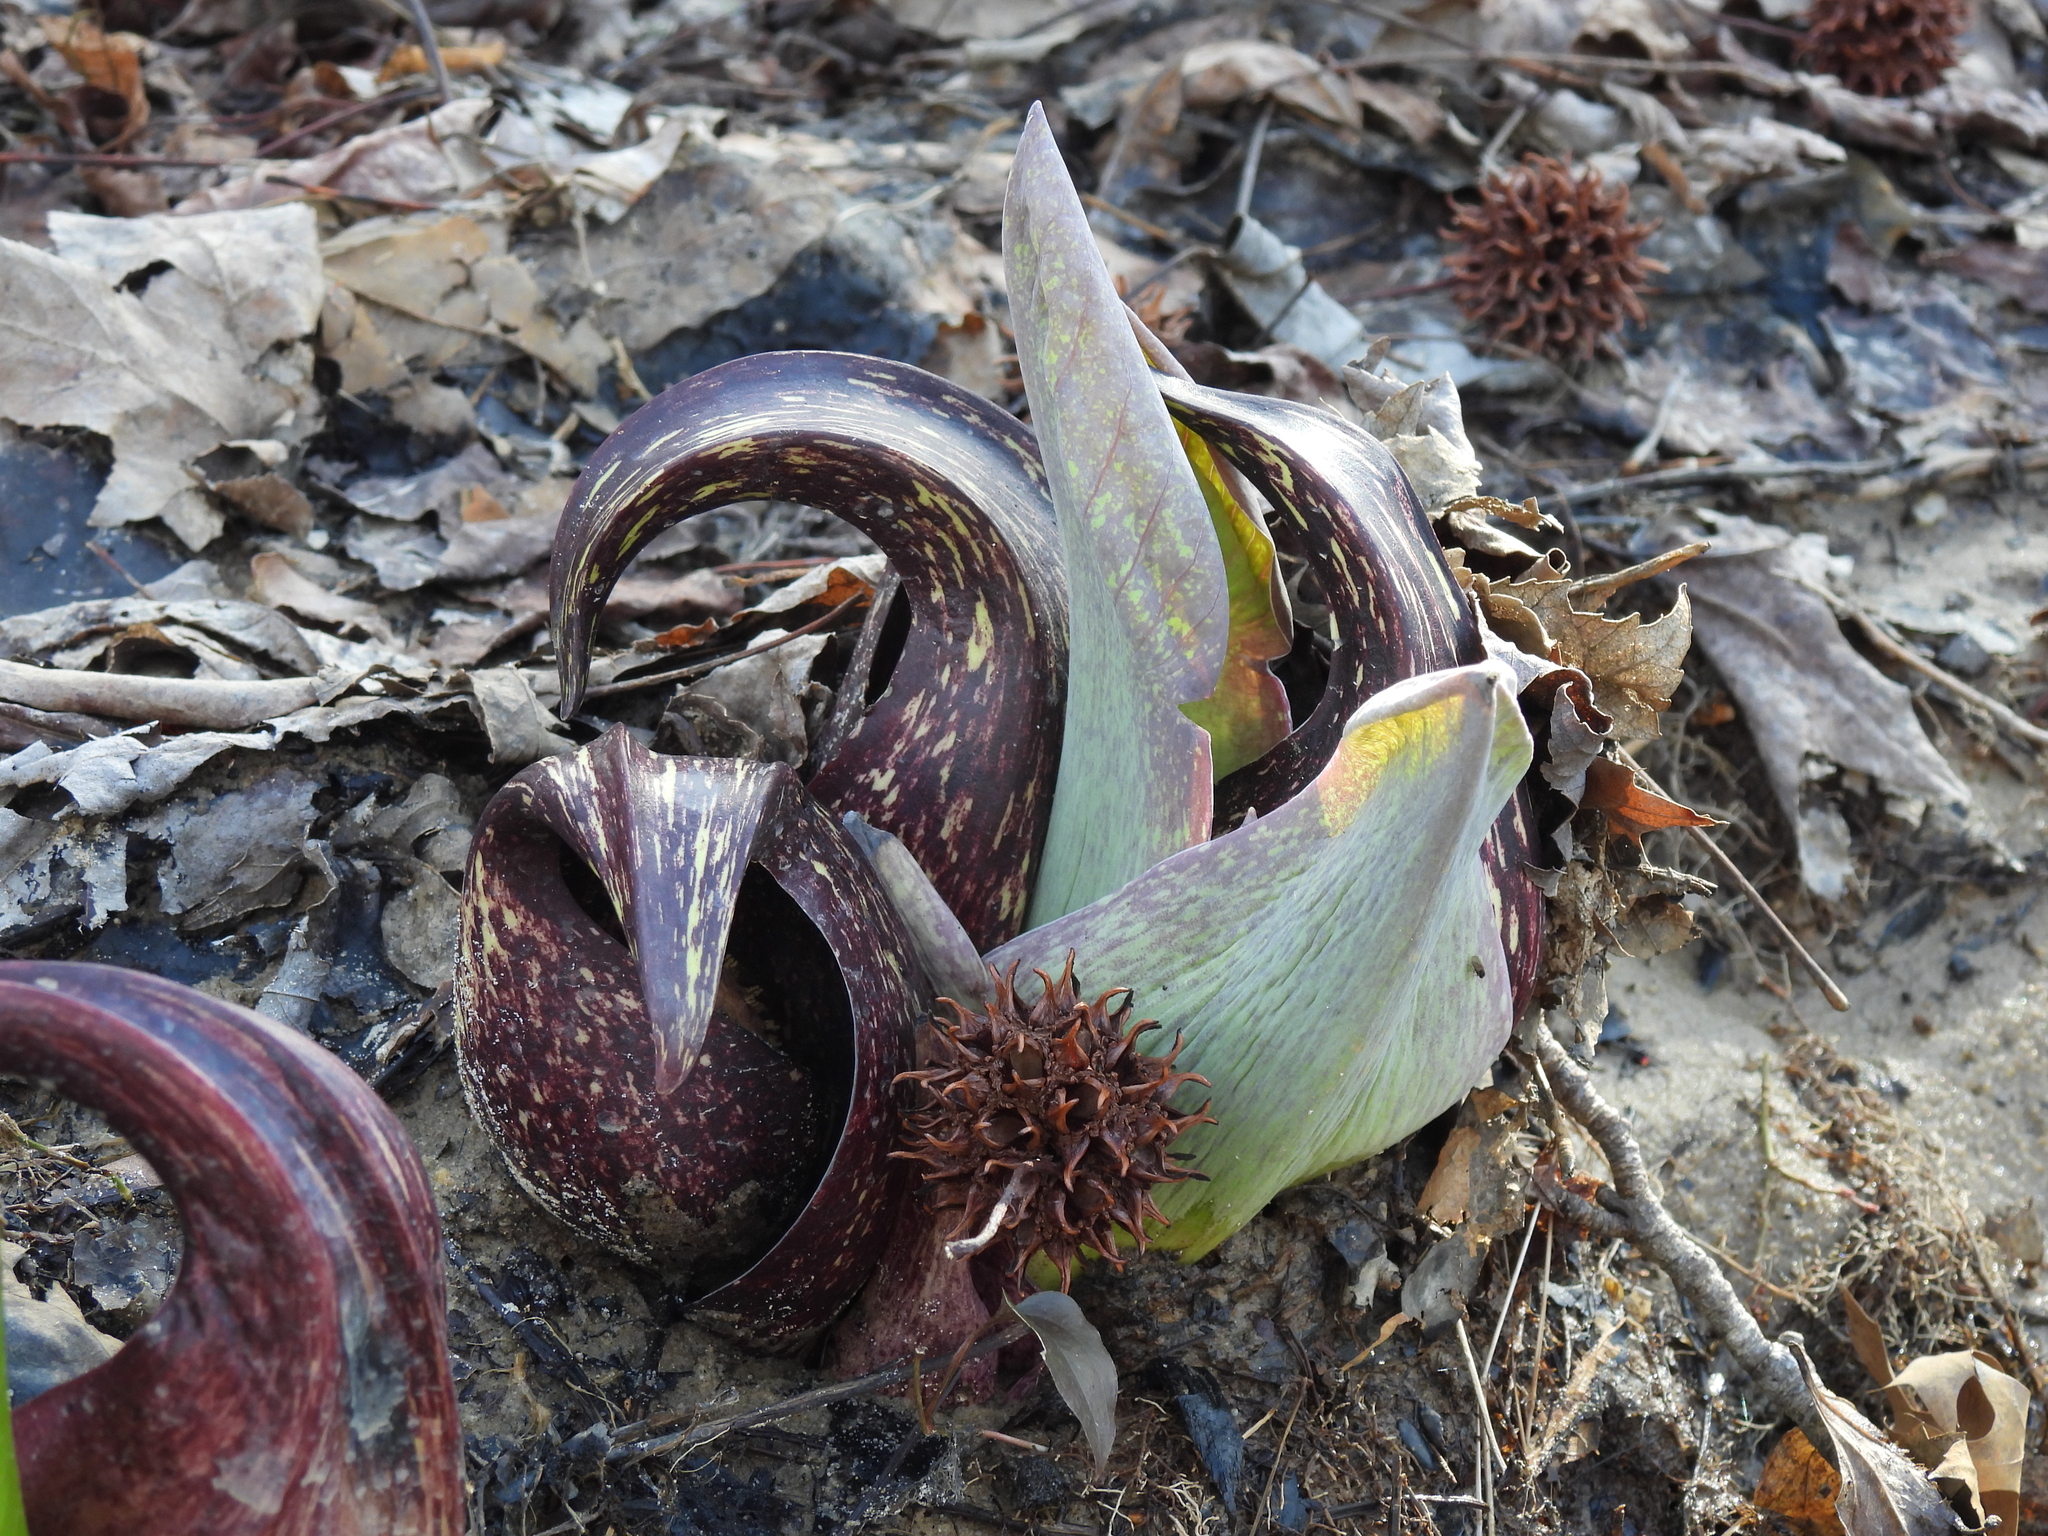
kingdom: Plantae
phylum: Tracheophyta
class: Liliopsida
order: Alismatales
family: Araceae
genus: Symplocarpus
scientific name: Symplocarpus foetidus
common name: Eastern skunk cabbage
